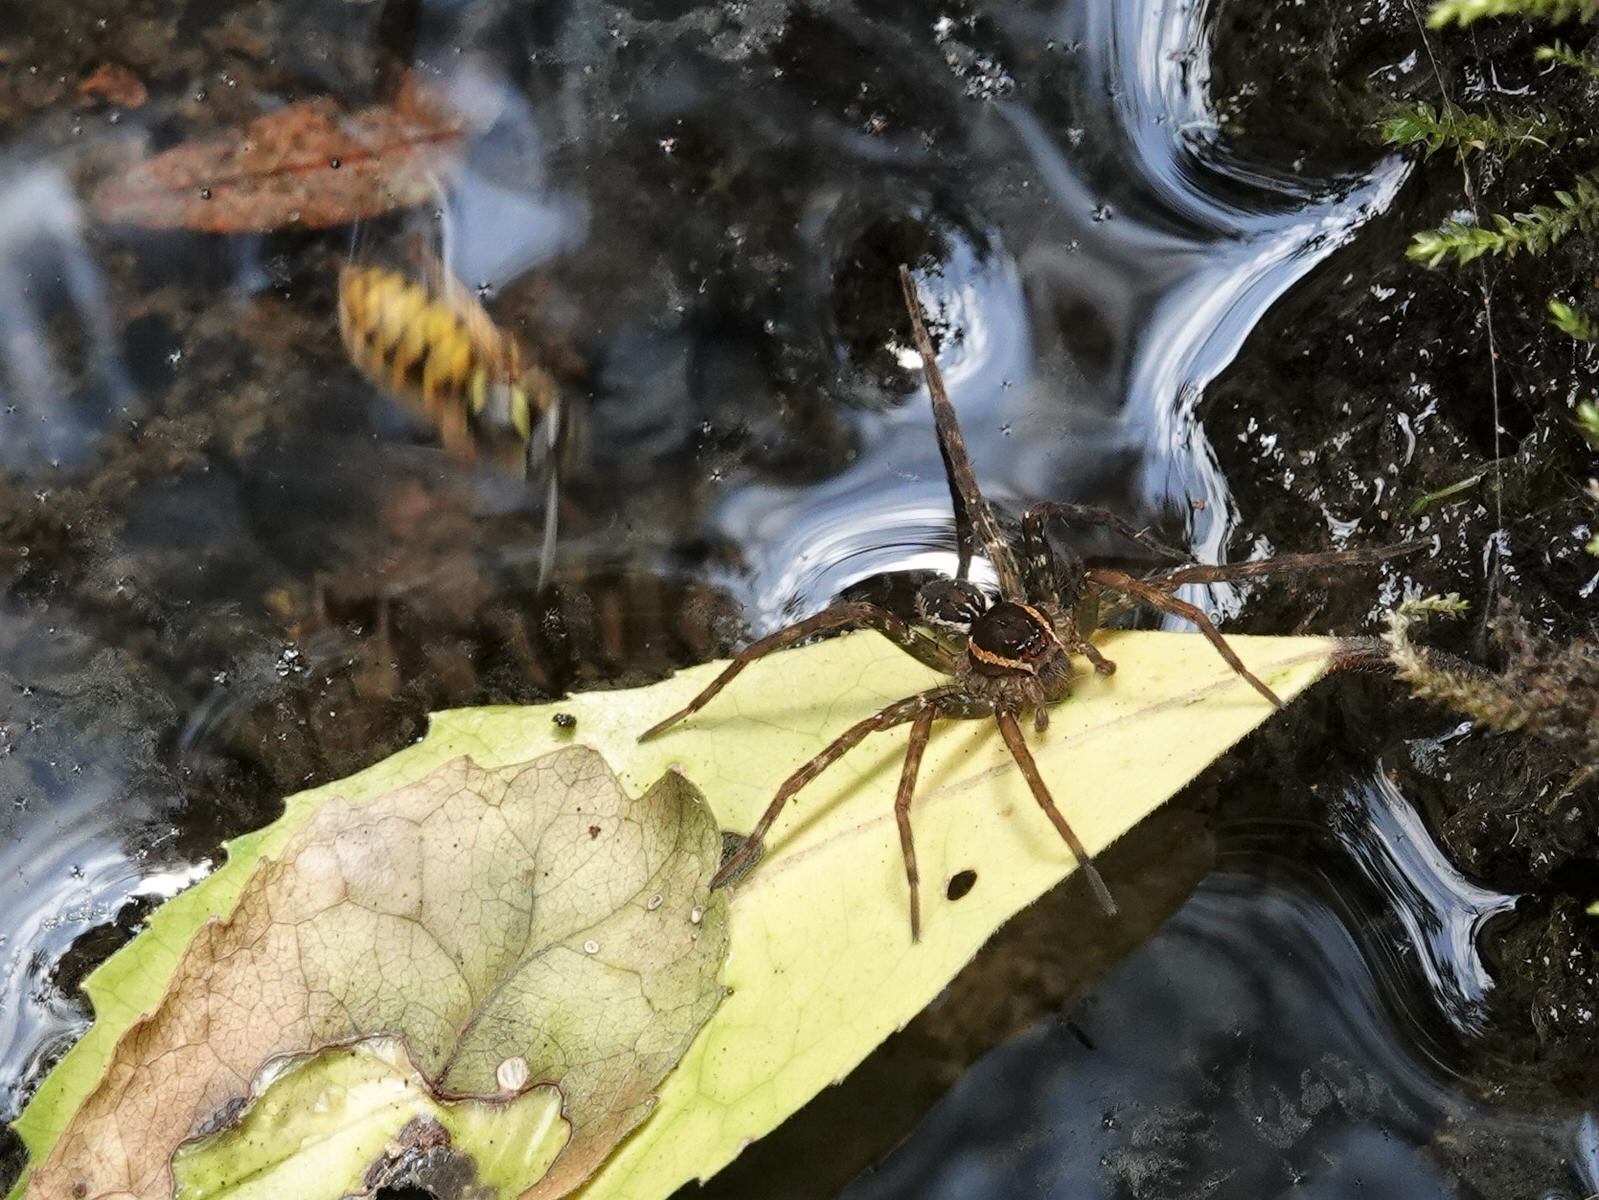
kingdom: Animalia
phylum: Arthropoda
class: Arachnida
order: Araneae
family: Pisauridae
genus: Dolomedes
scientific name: Dolomedes dondalei
